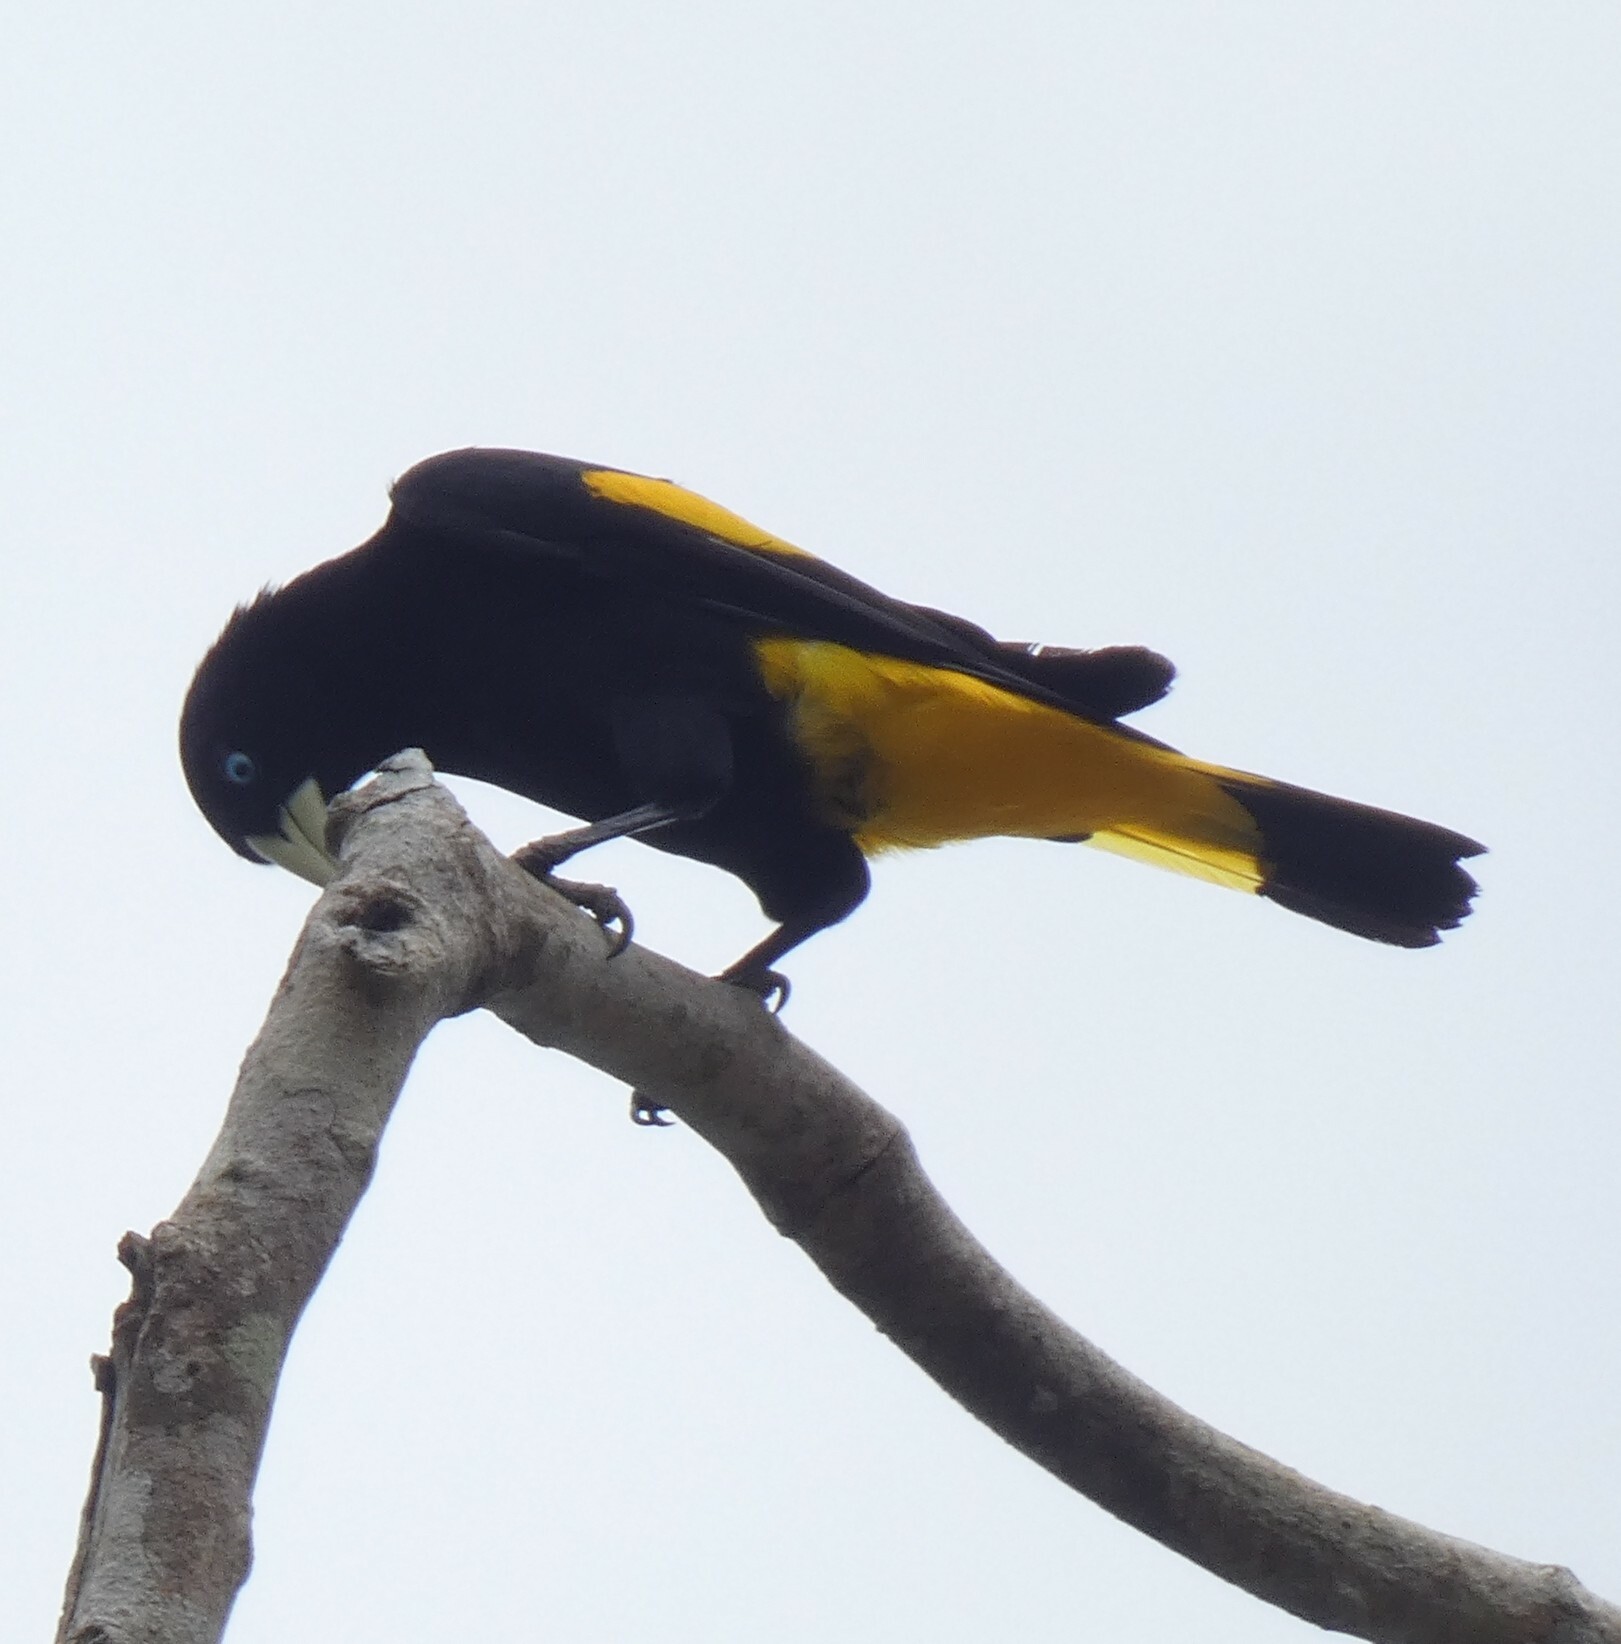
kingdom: Animalia
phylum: Chordata
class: Aves
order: Passeriformes
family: Icteridae
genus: Cacicus
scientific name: Cacicus cela
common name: Yellow-rumped cacique
